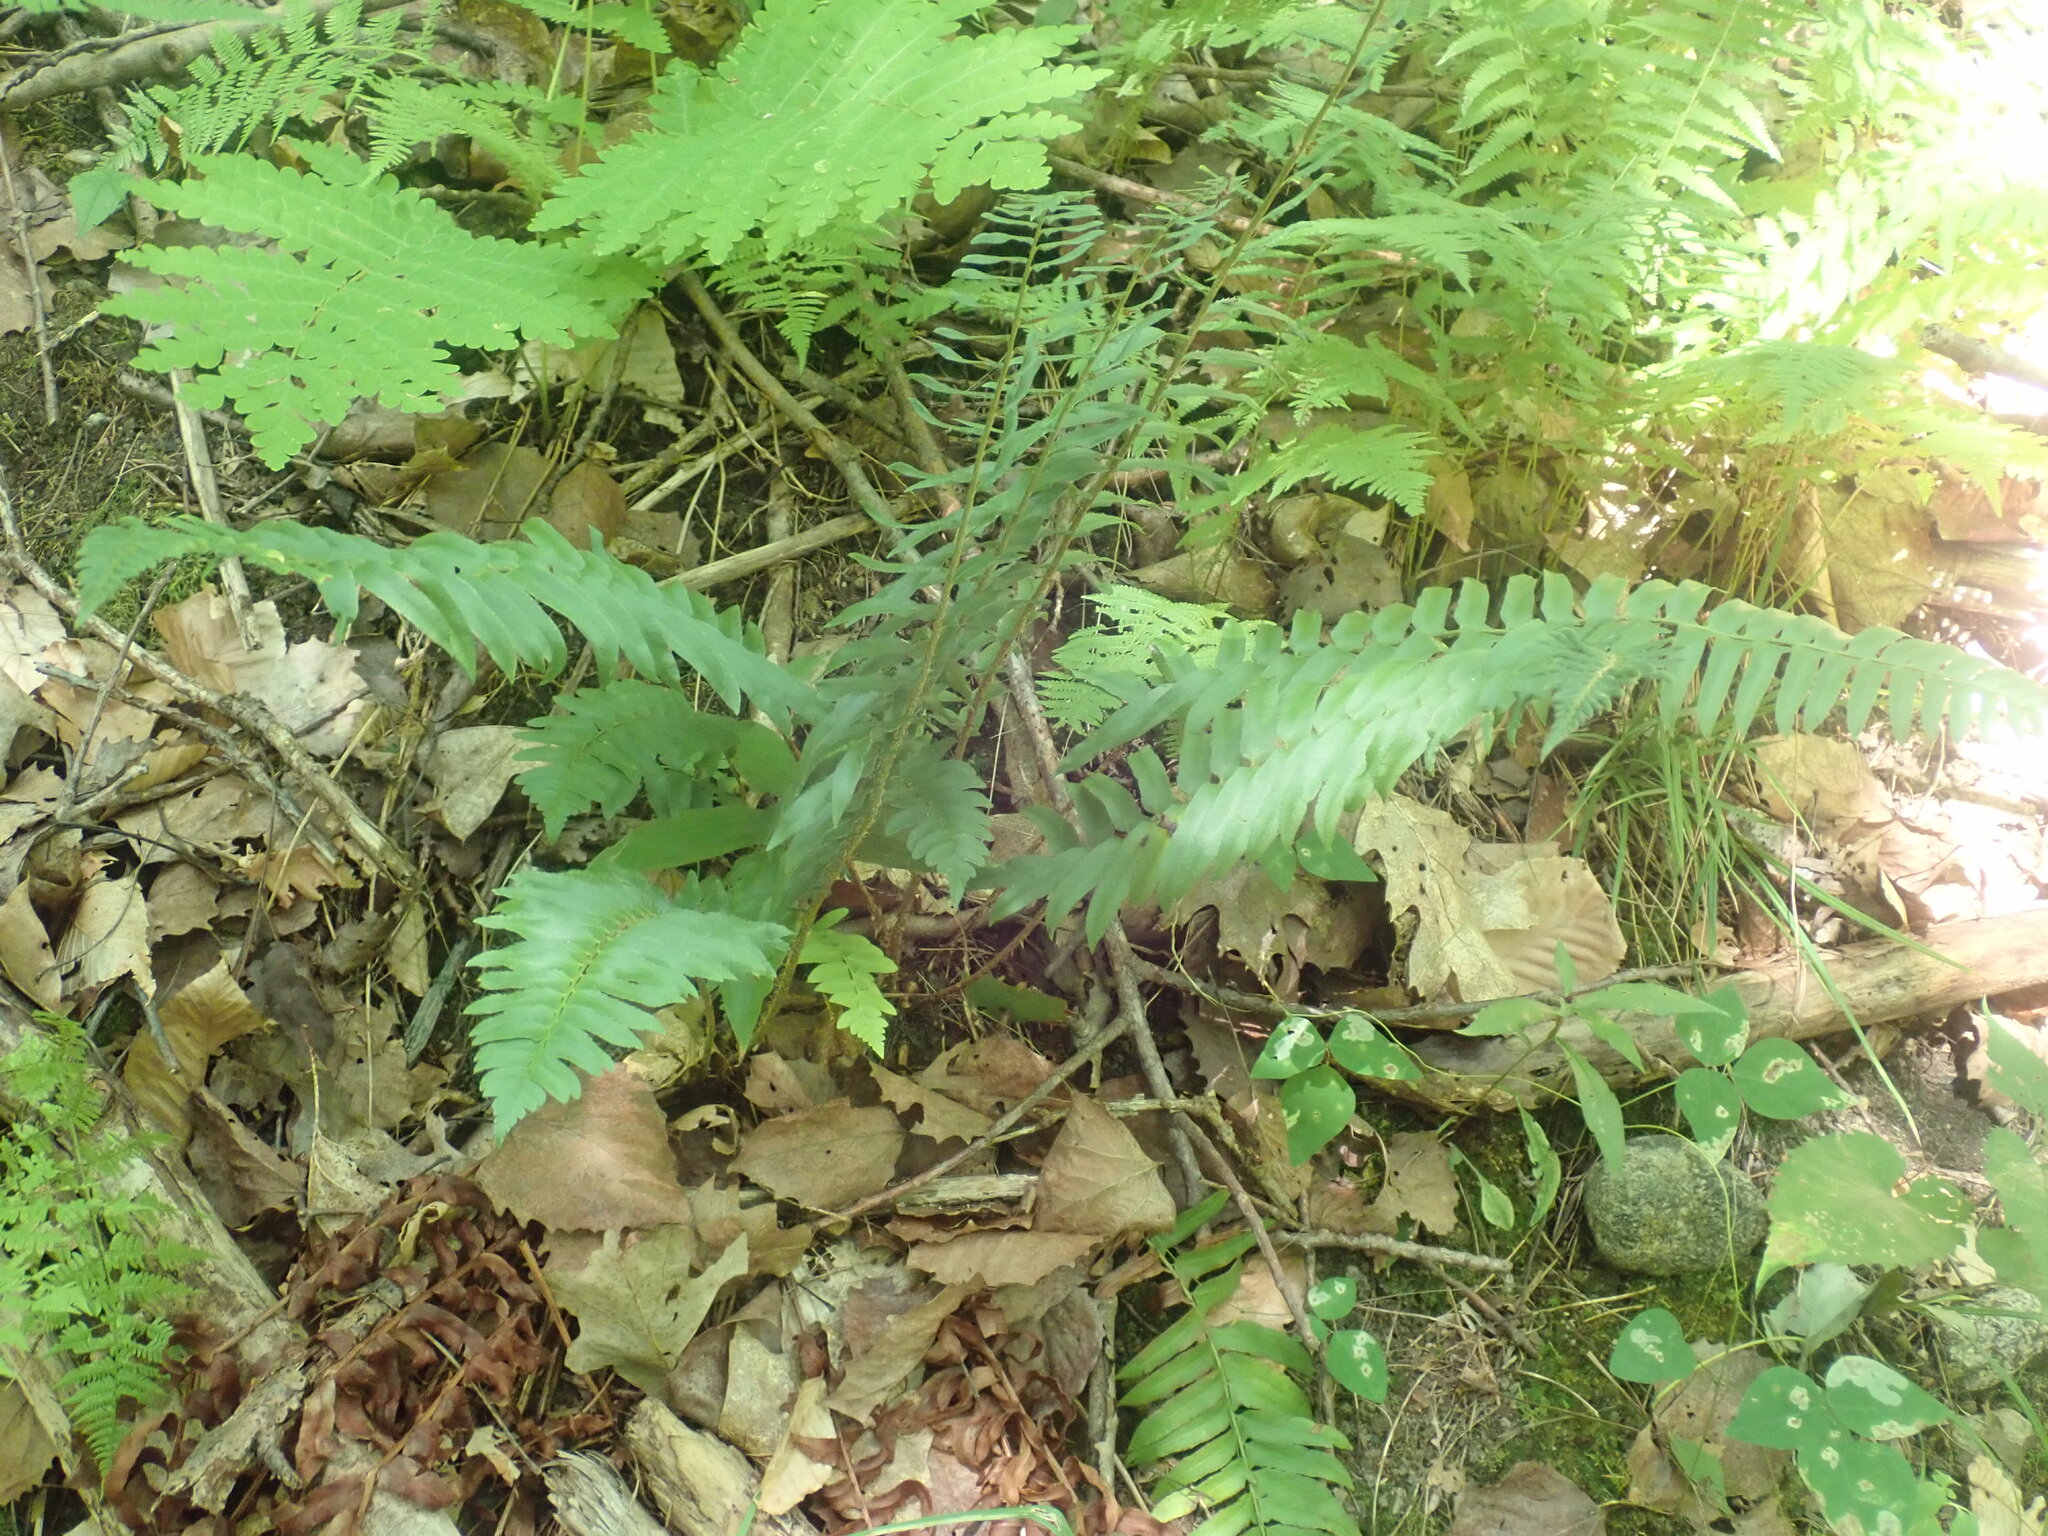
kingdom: Plantae
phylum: Tracheophyta
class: Polypodiopsida
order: Polypodiales
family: Dryopteridaceae
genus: Polystichum
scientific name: Polystichum acrostichoides
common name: Christmas fern
